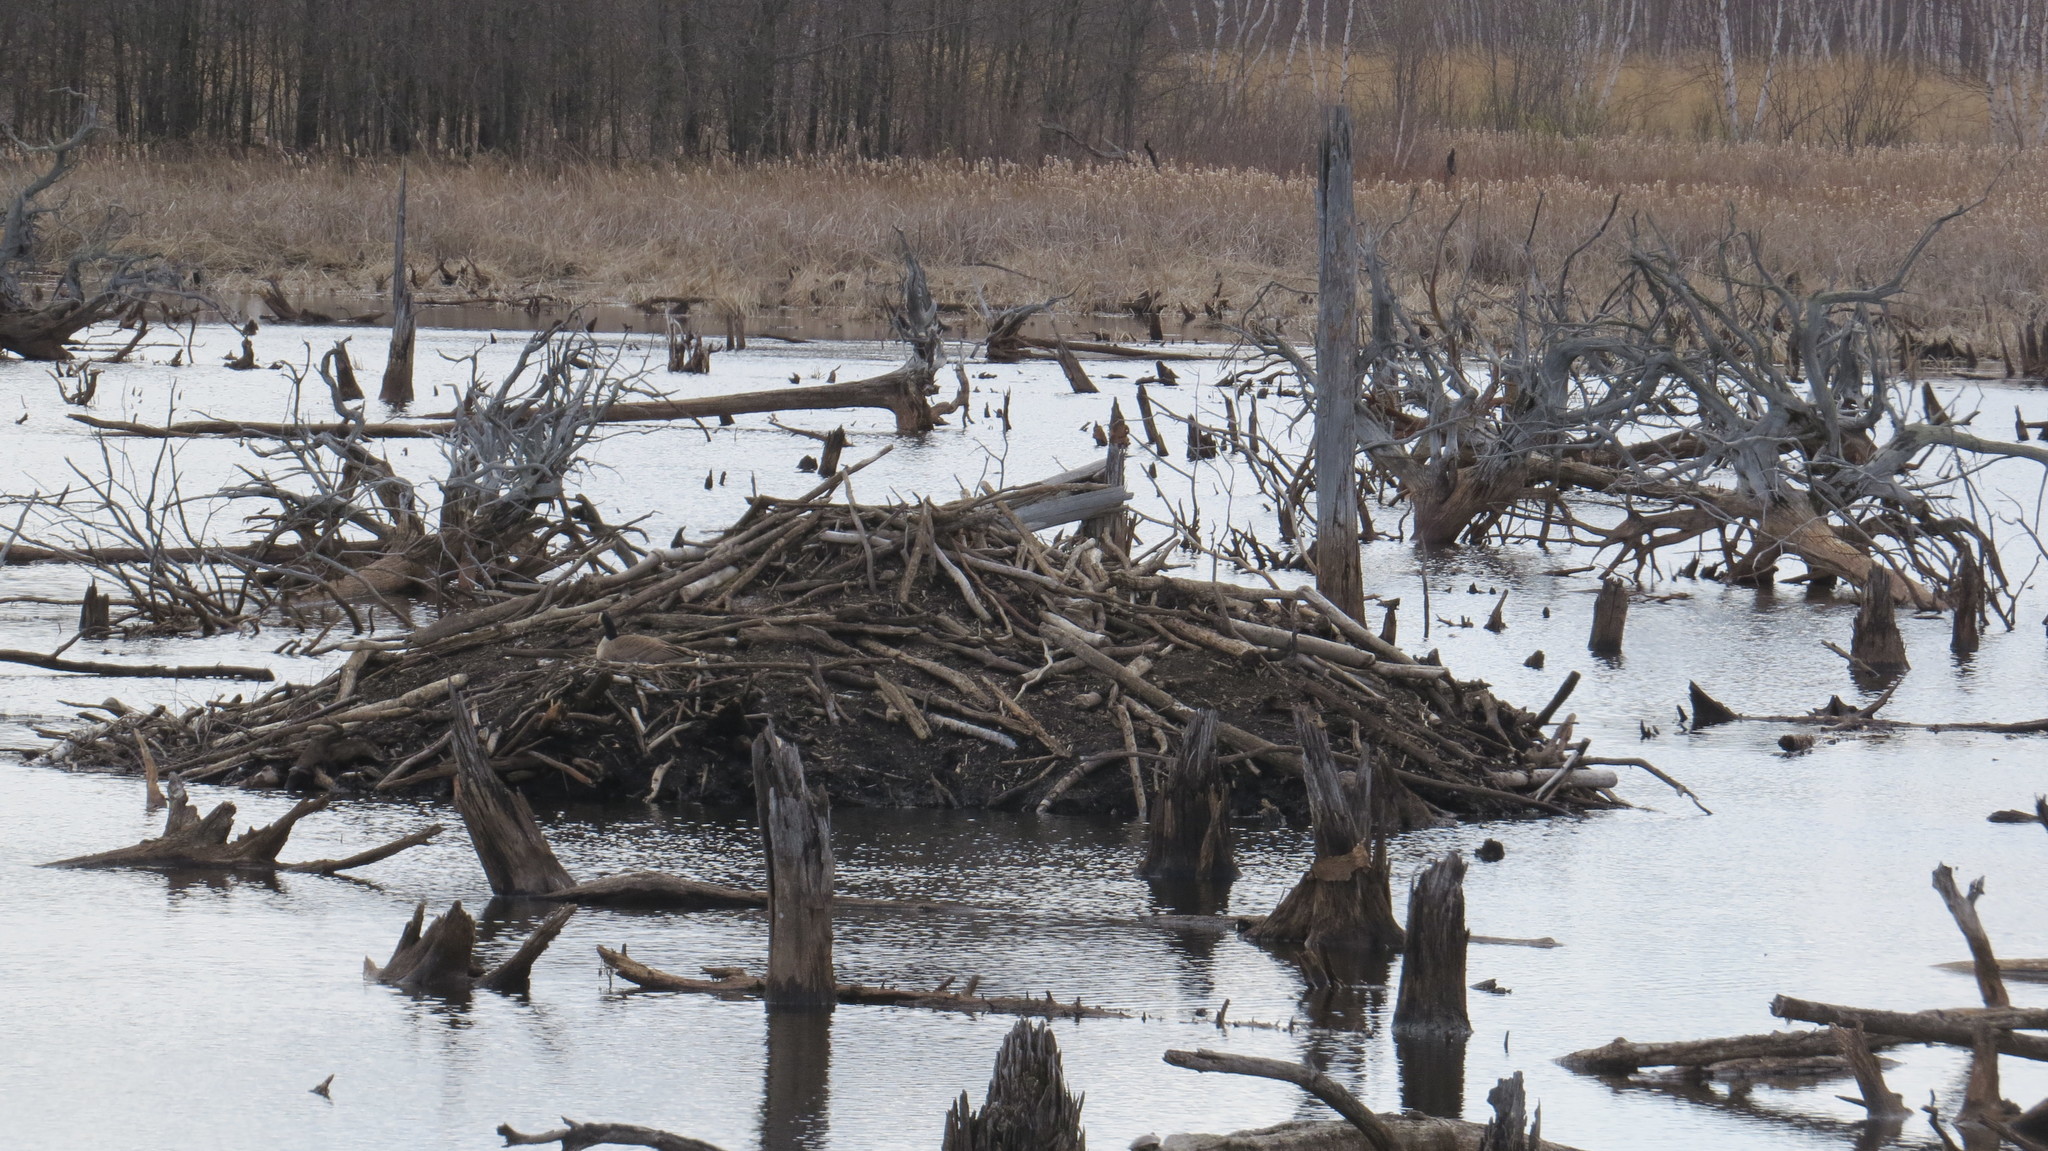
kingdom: Animalia
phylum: Chordata
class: Mammalia
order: Rodentia
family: Castoridae
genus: Castor
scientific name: Castor canadensis
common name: American beaver
